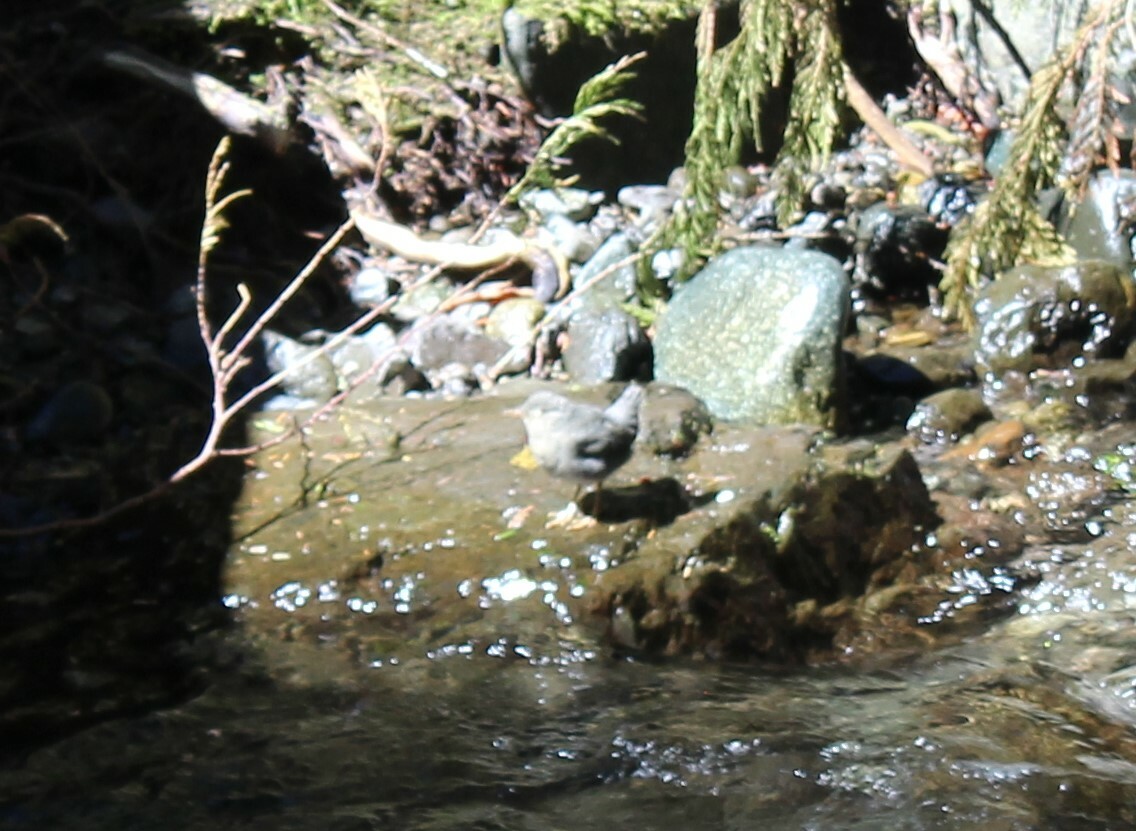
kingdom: Animalia
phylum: Chordata
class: Aves
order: Passeriformes
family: Cinclidae
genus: Cinclus
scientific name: Cinclus mexicanus
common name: American dipper
